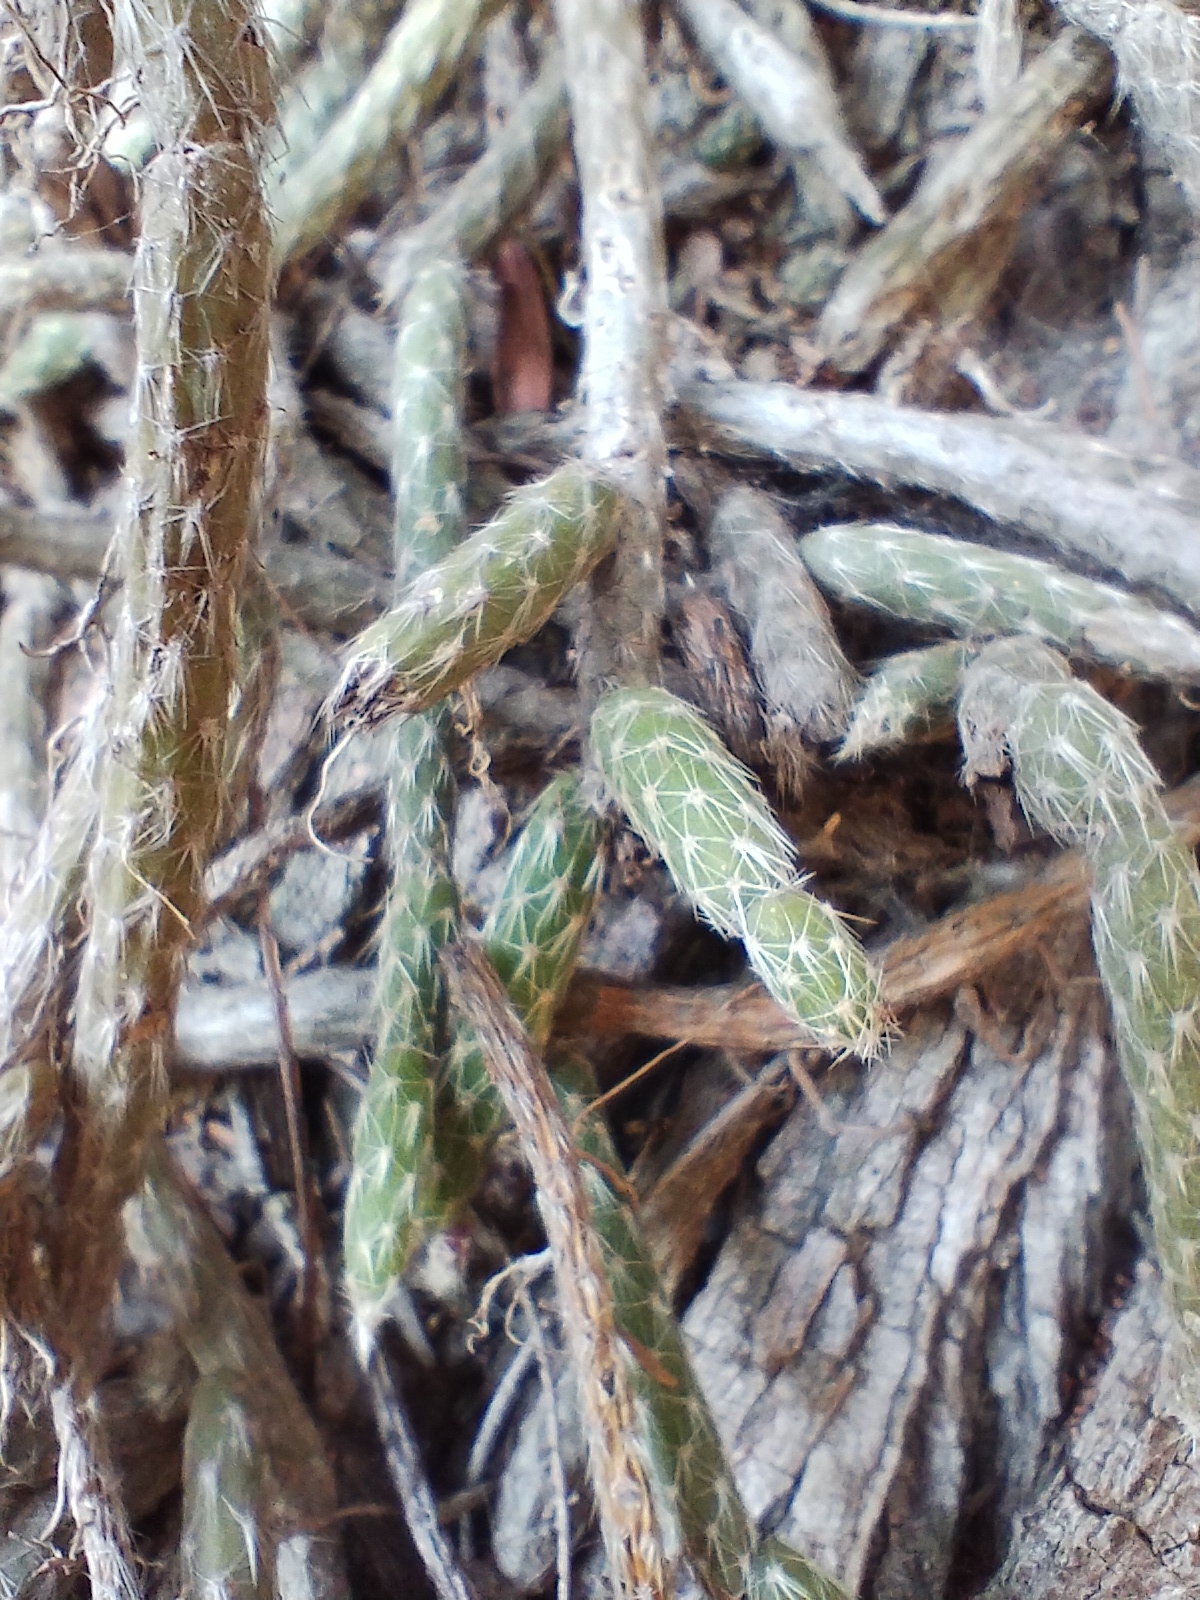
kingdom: Plantae
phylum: Tracheophyta
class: Magnoliopsida
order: Caryophyllales
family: Cactaceae
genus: Lepismium
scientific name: Lepismium lumbricoides
